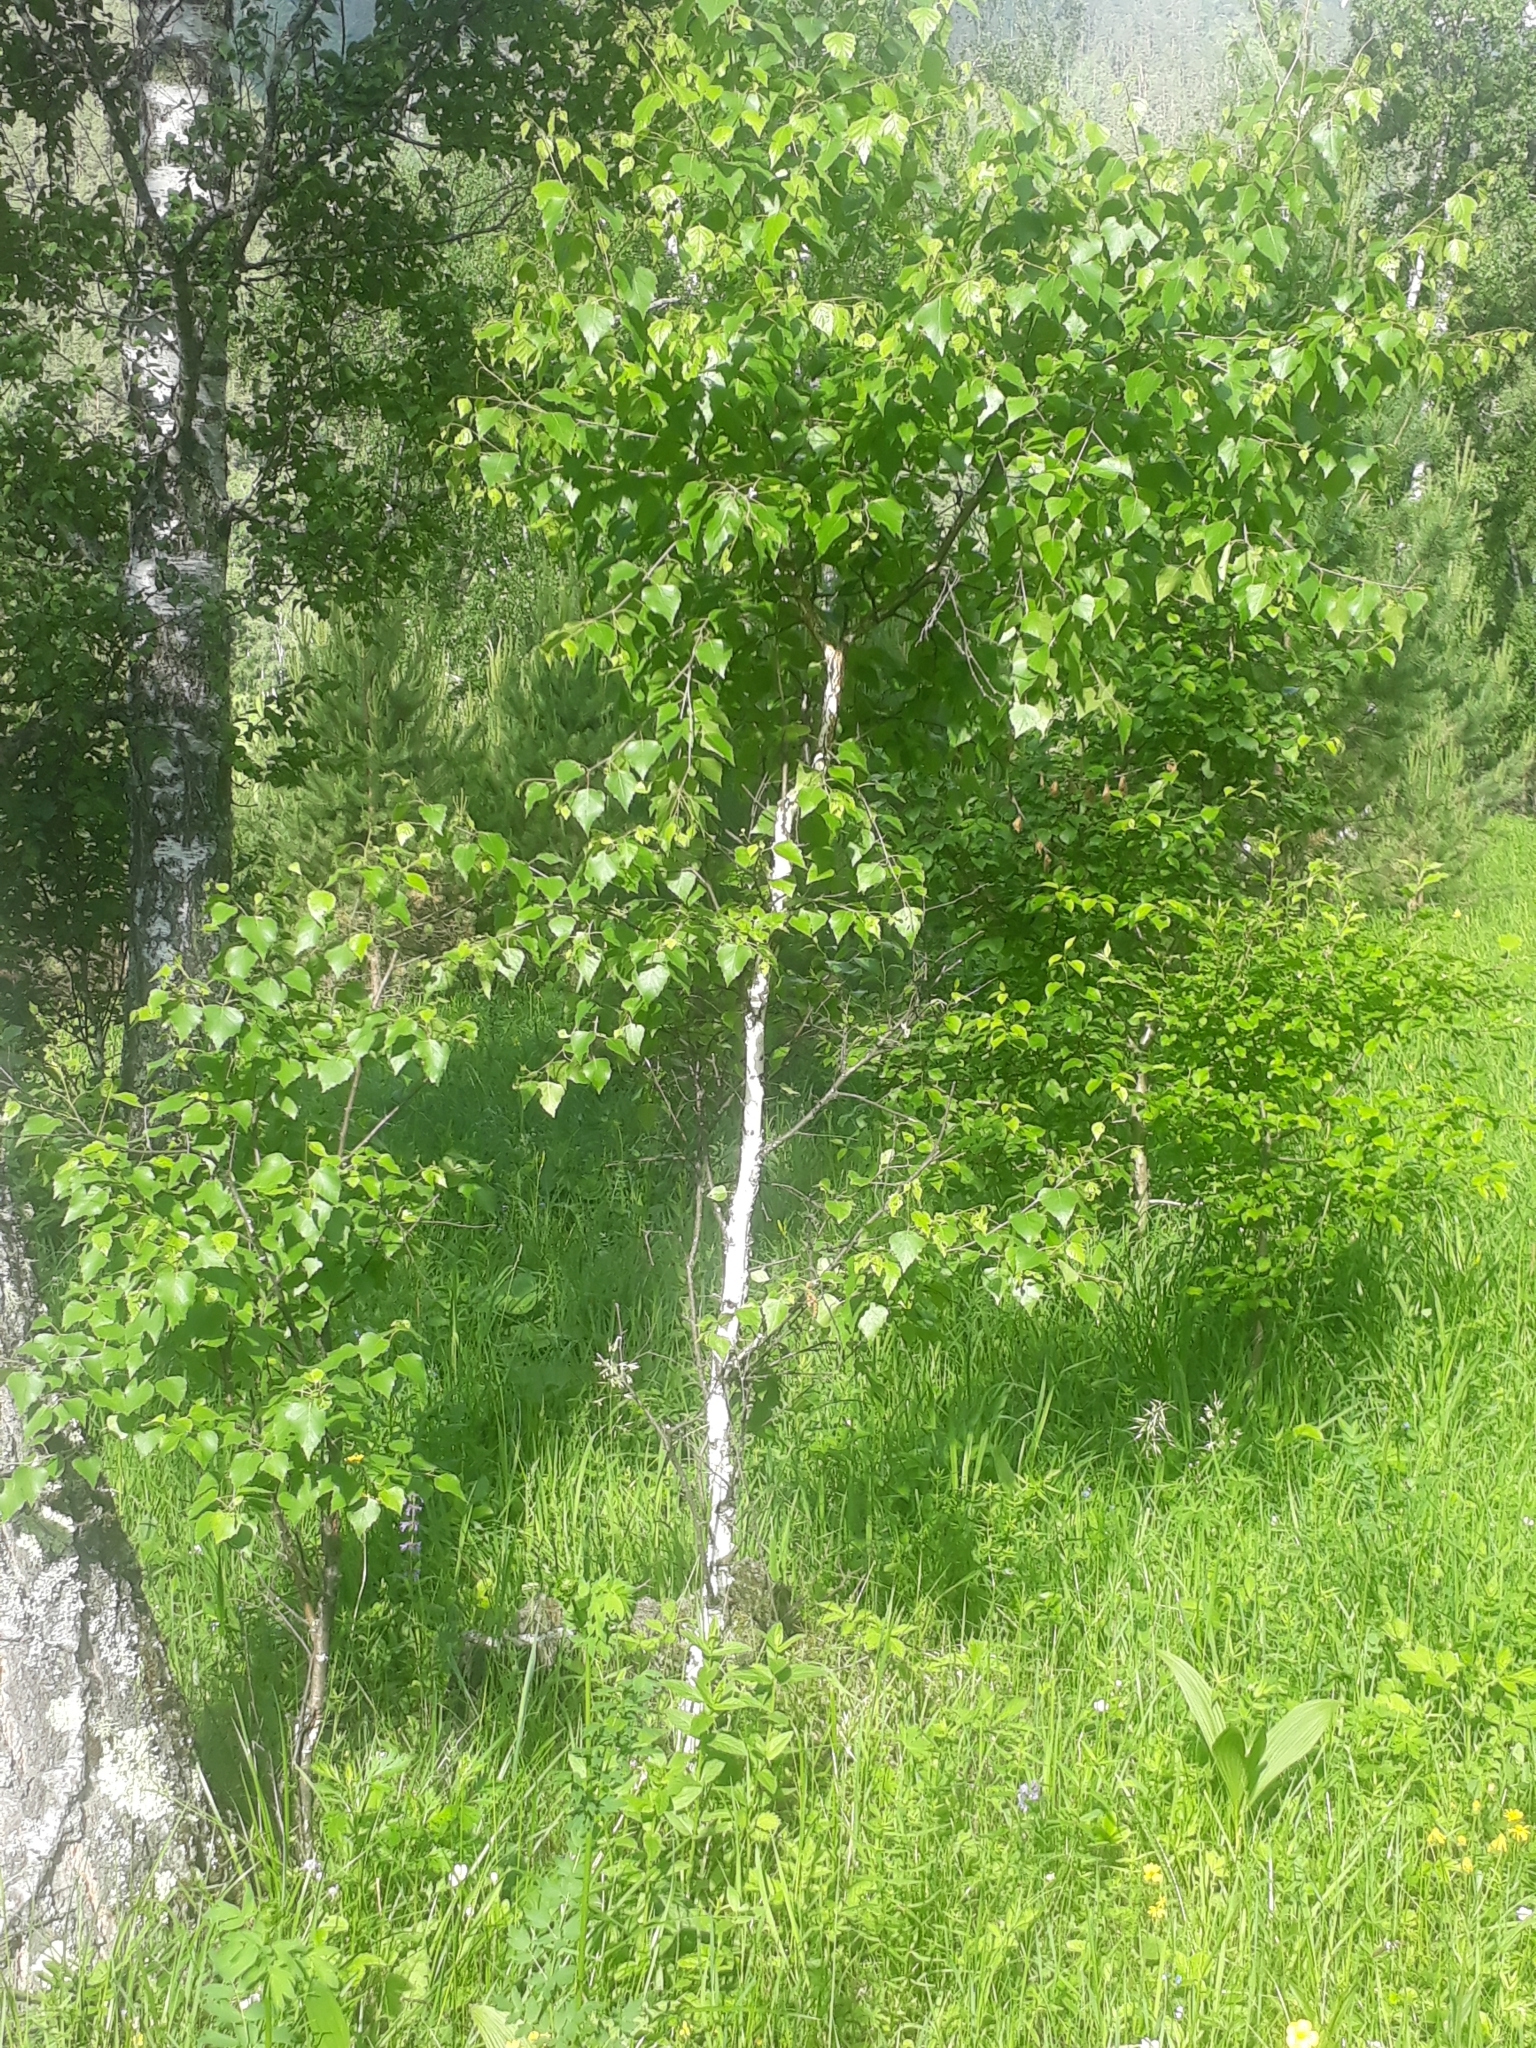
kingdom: Plantae
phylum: Tracheophyta
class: Magnoliopsida
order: Fagales
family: Betulaceae
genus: Betula
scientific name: Betula pendula
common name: Silver birch
